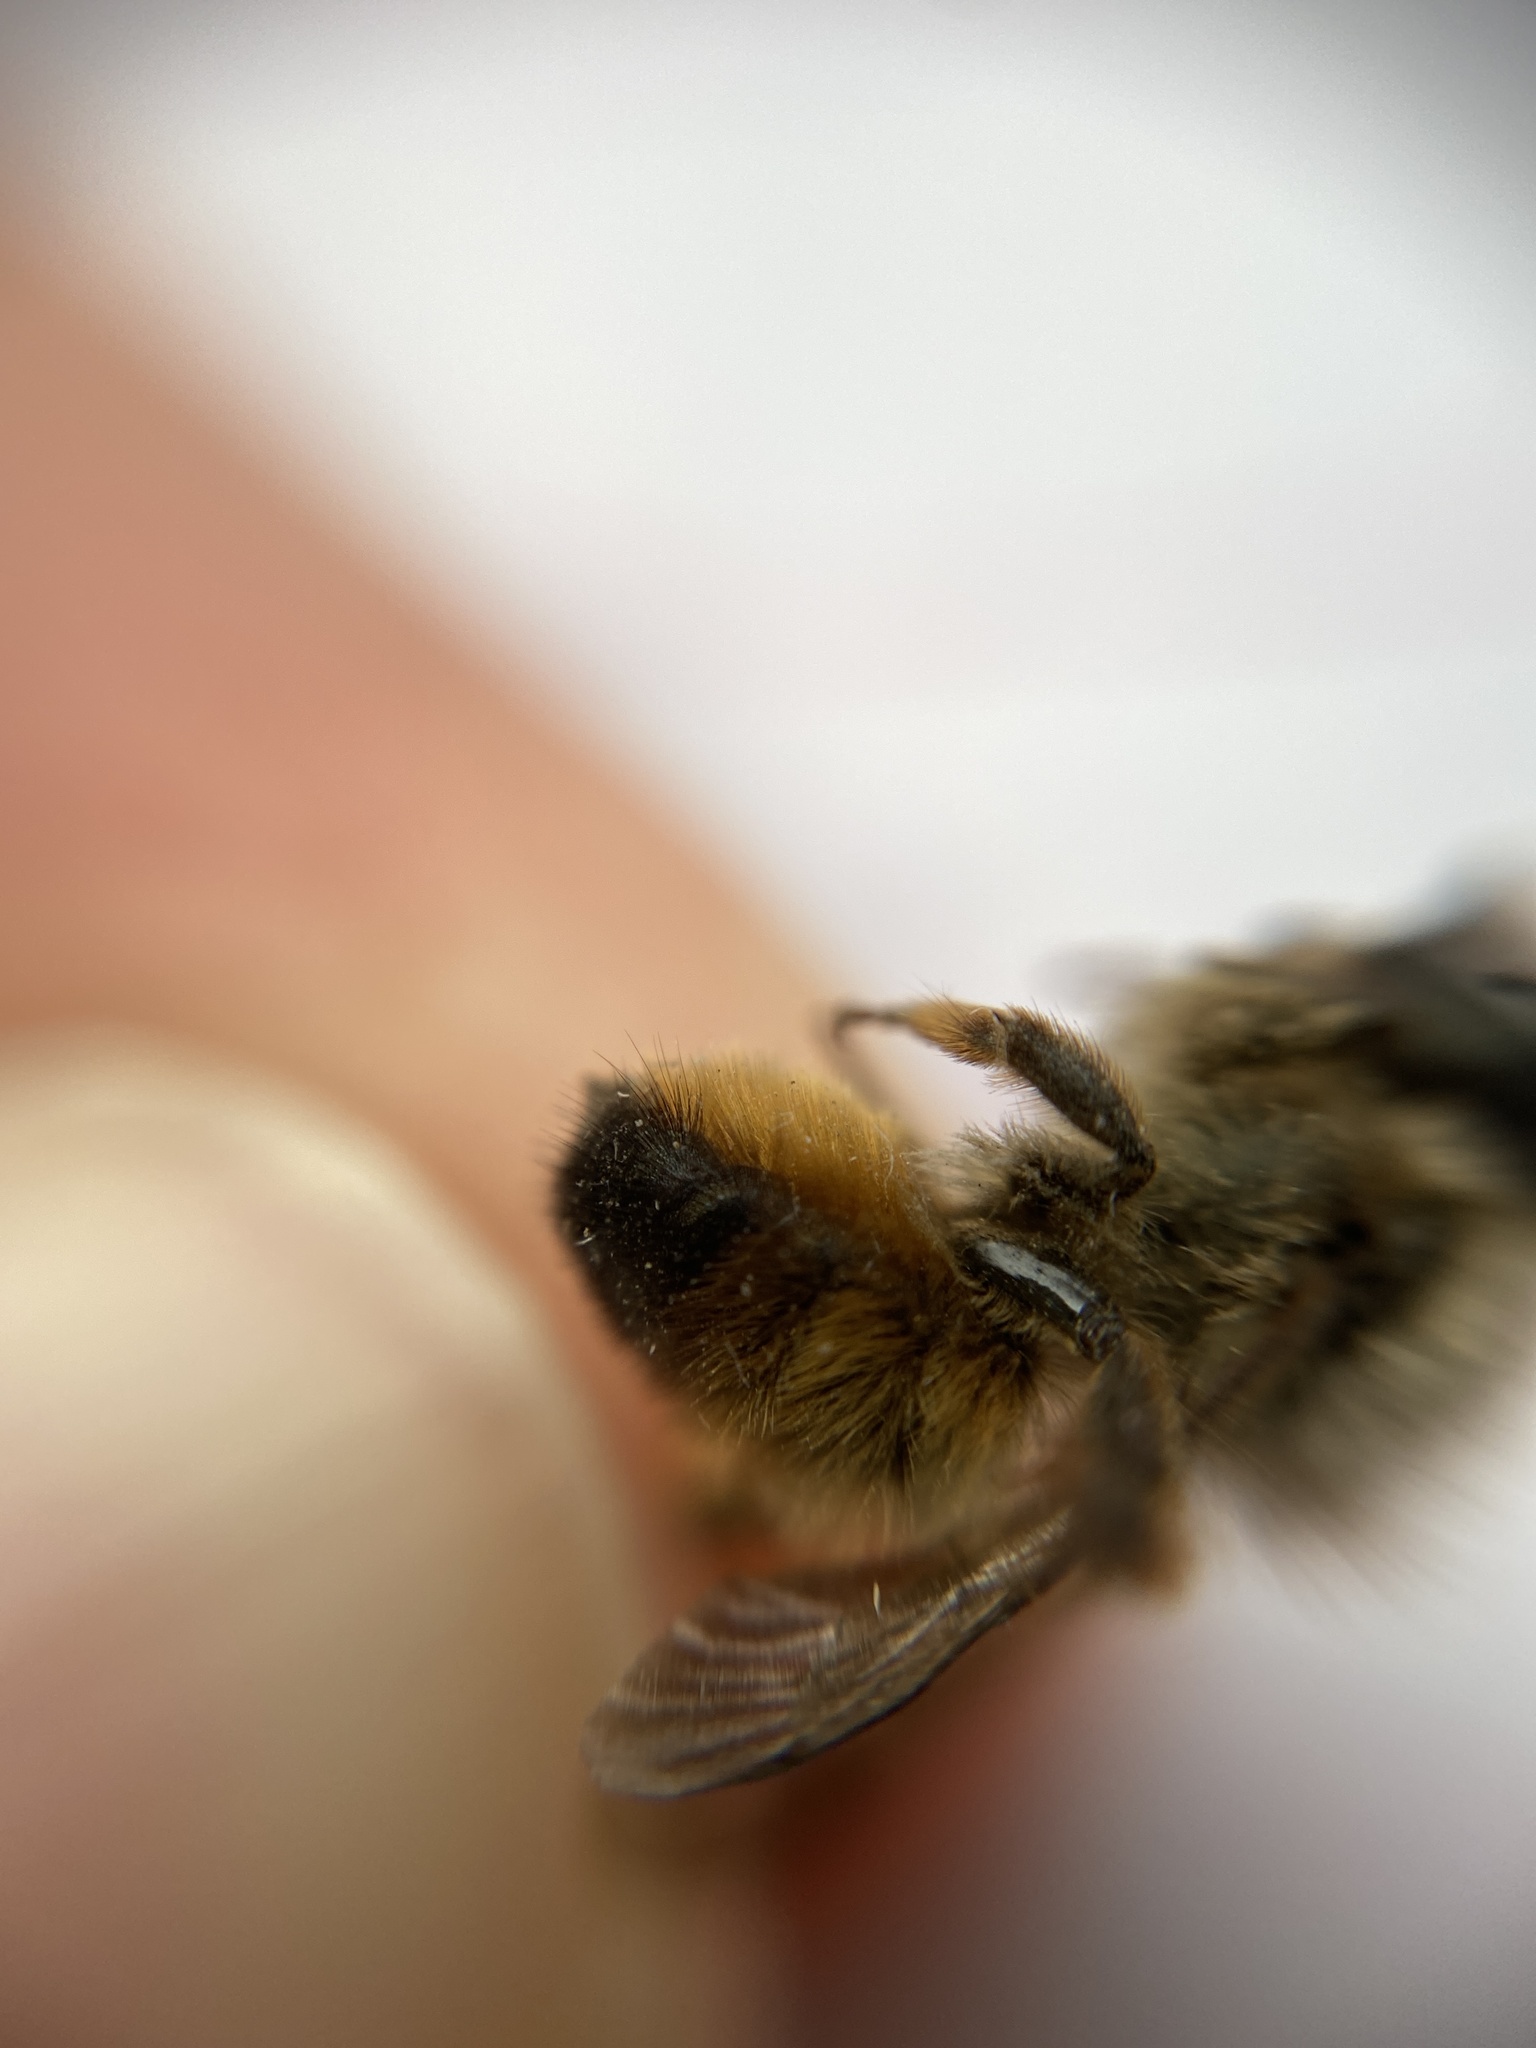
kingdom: Animalia
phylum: Arthropoda
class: Insecta
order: Hymenoptera
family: Megachilidae
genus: Osmia
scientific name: Osmia bicornis
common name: Red mason bee
